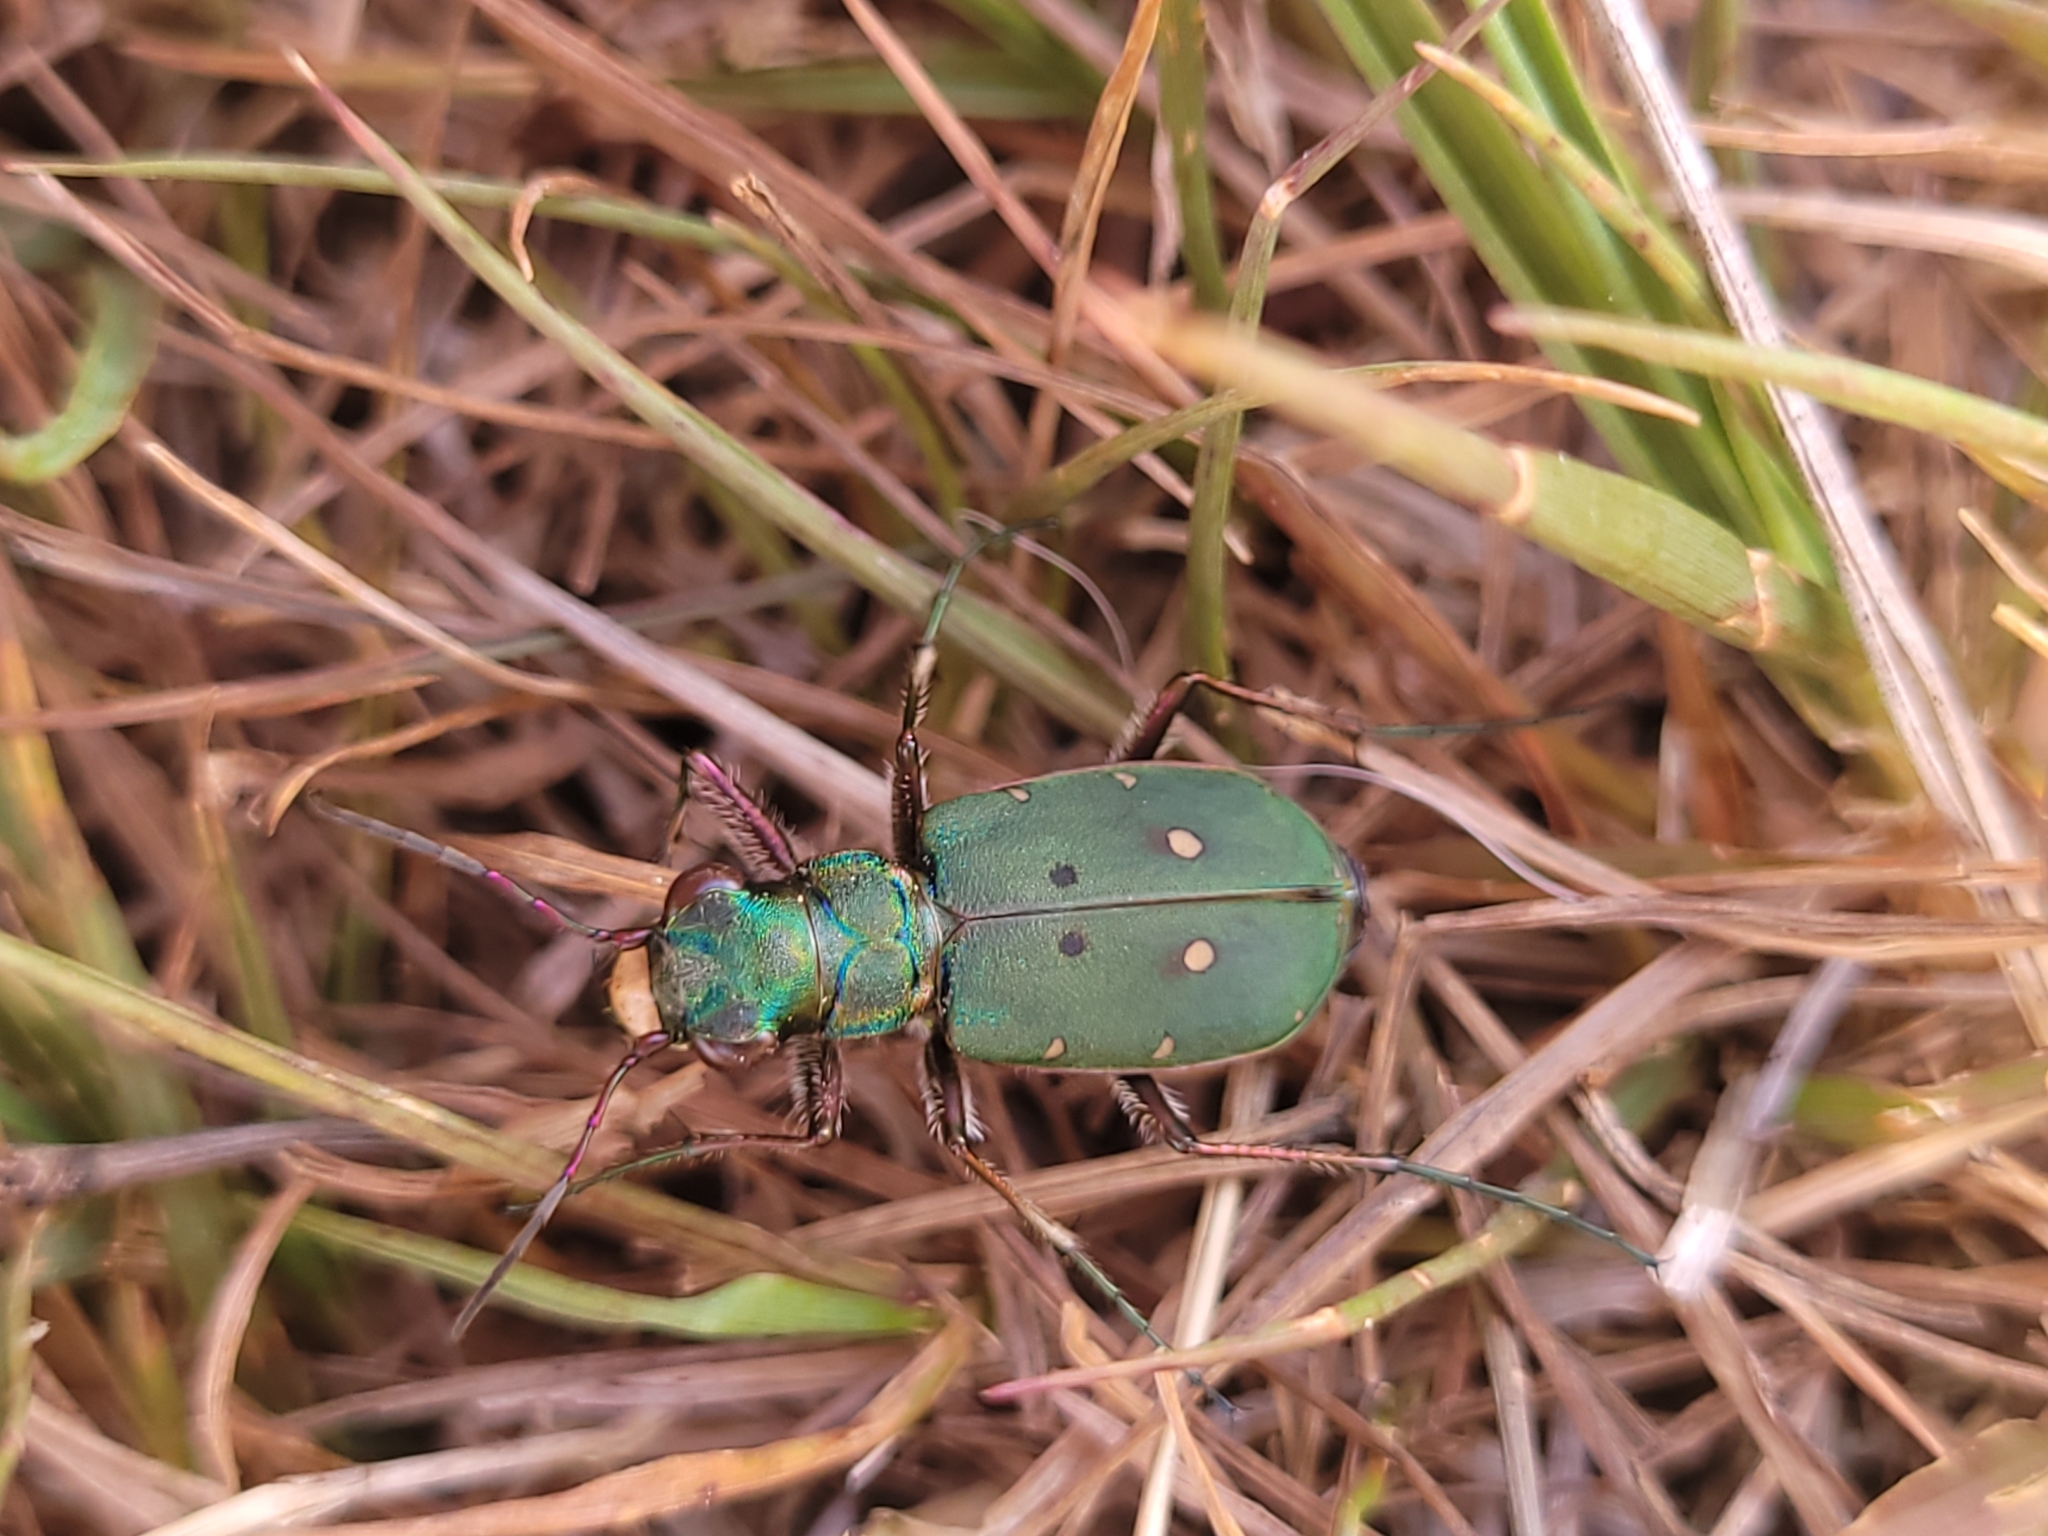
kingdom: Animalia
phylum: Arthropoda
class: Insecta
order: Coleoptera
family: Carabidae
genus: Cicindela
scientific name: Cicindela campestris
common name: Common tiger beetle
